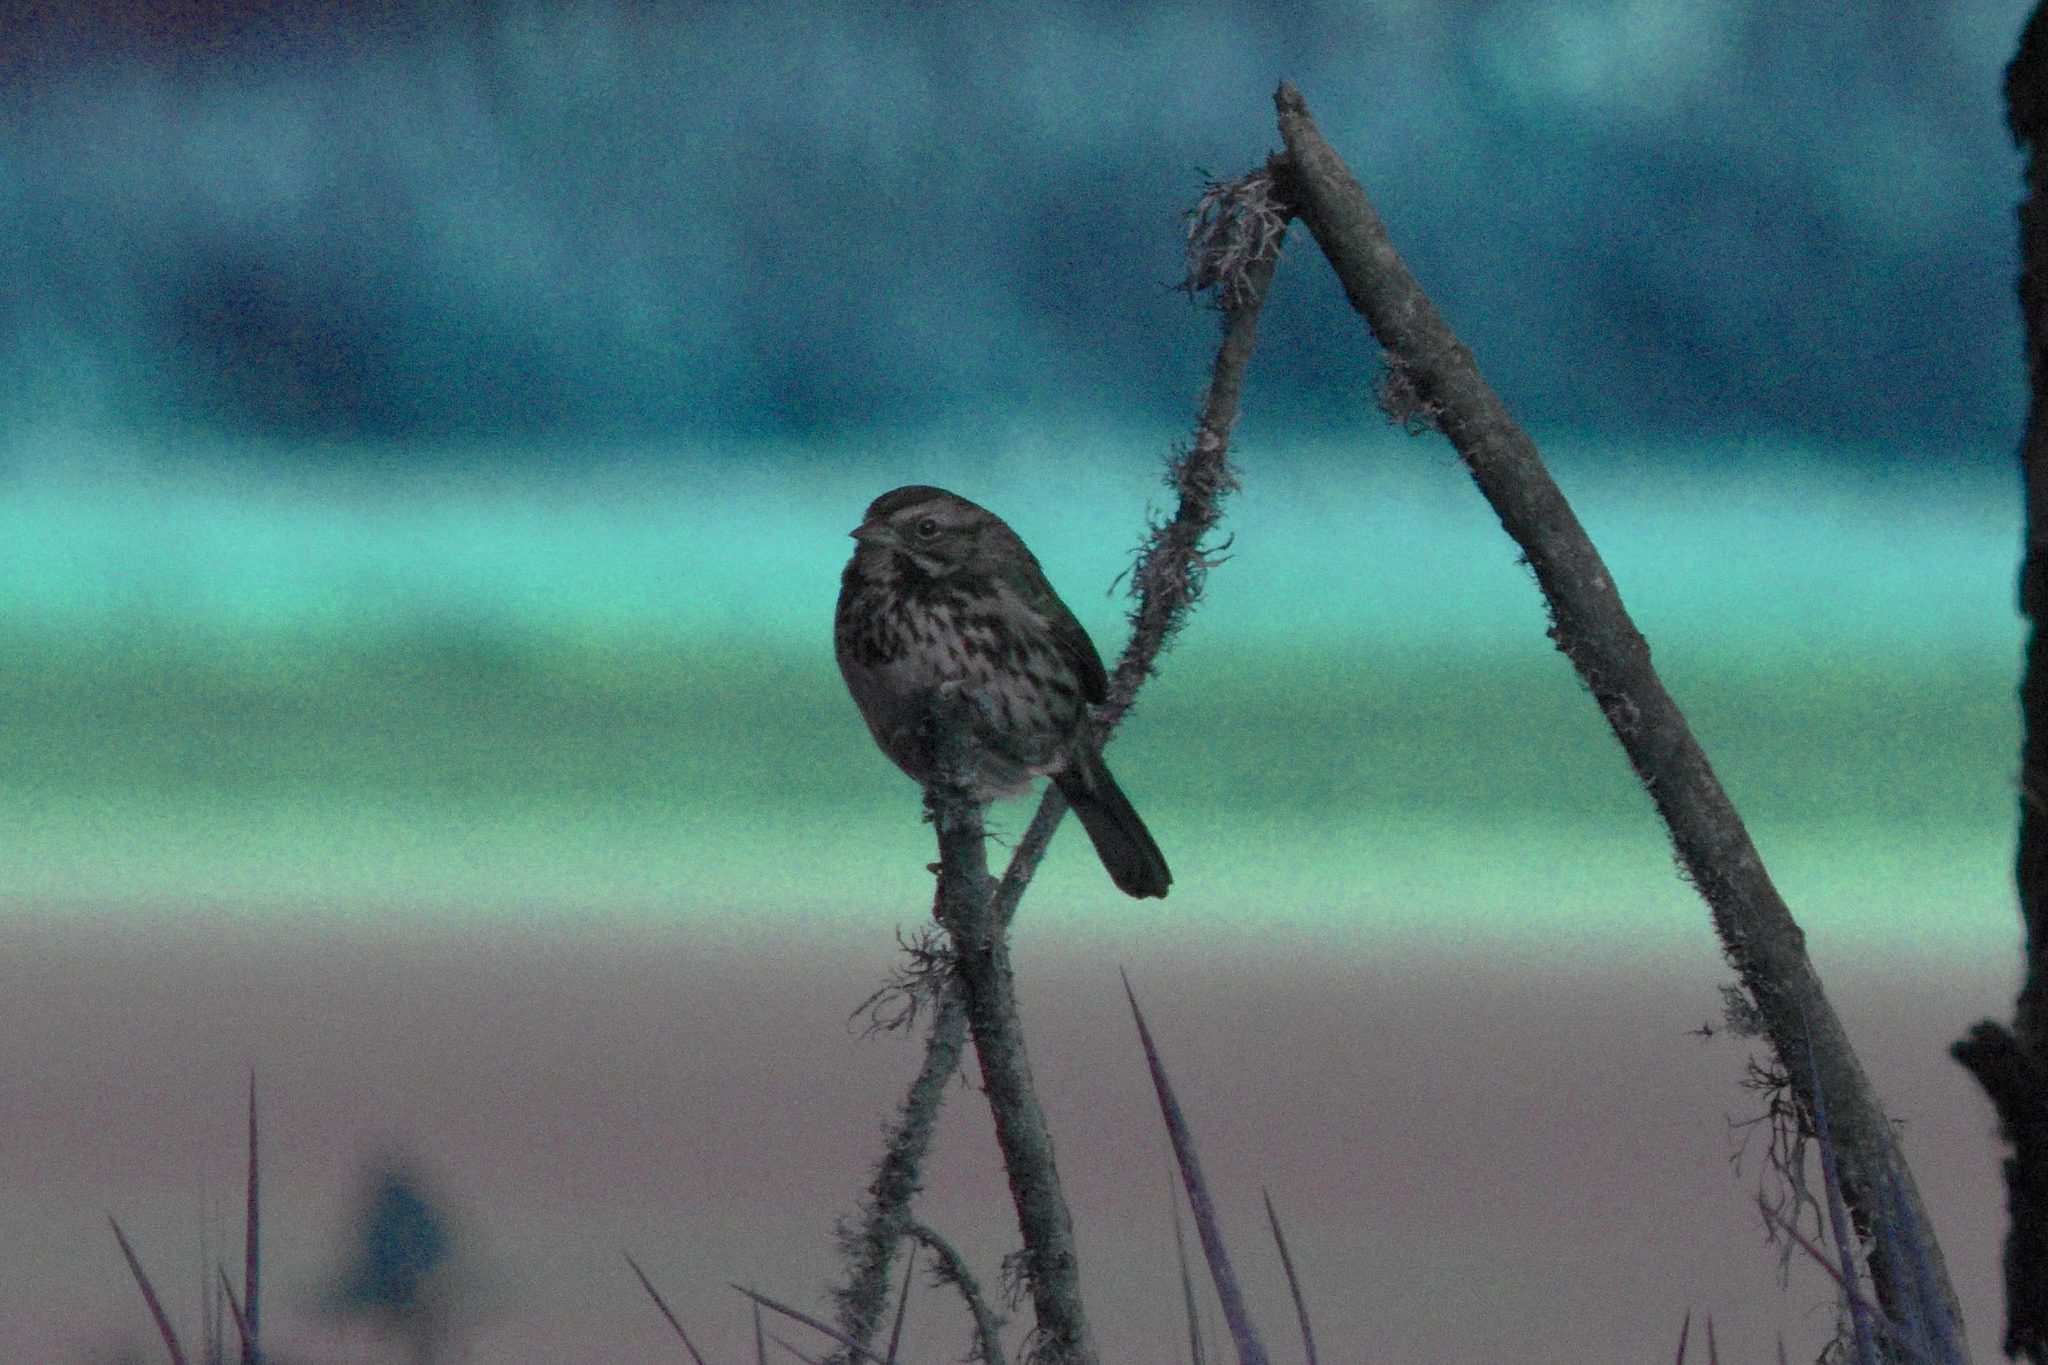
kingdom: Animalia
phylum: Chordata
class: Aves
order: Passeriformes
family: Passerellidae
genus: Melospiza
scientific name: Melospiza melodia
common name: Song sparrow
